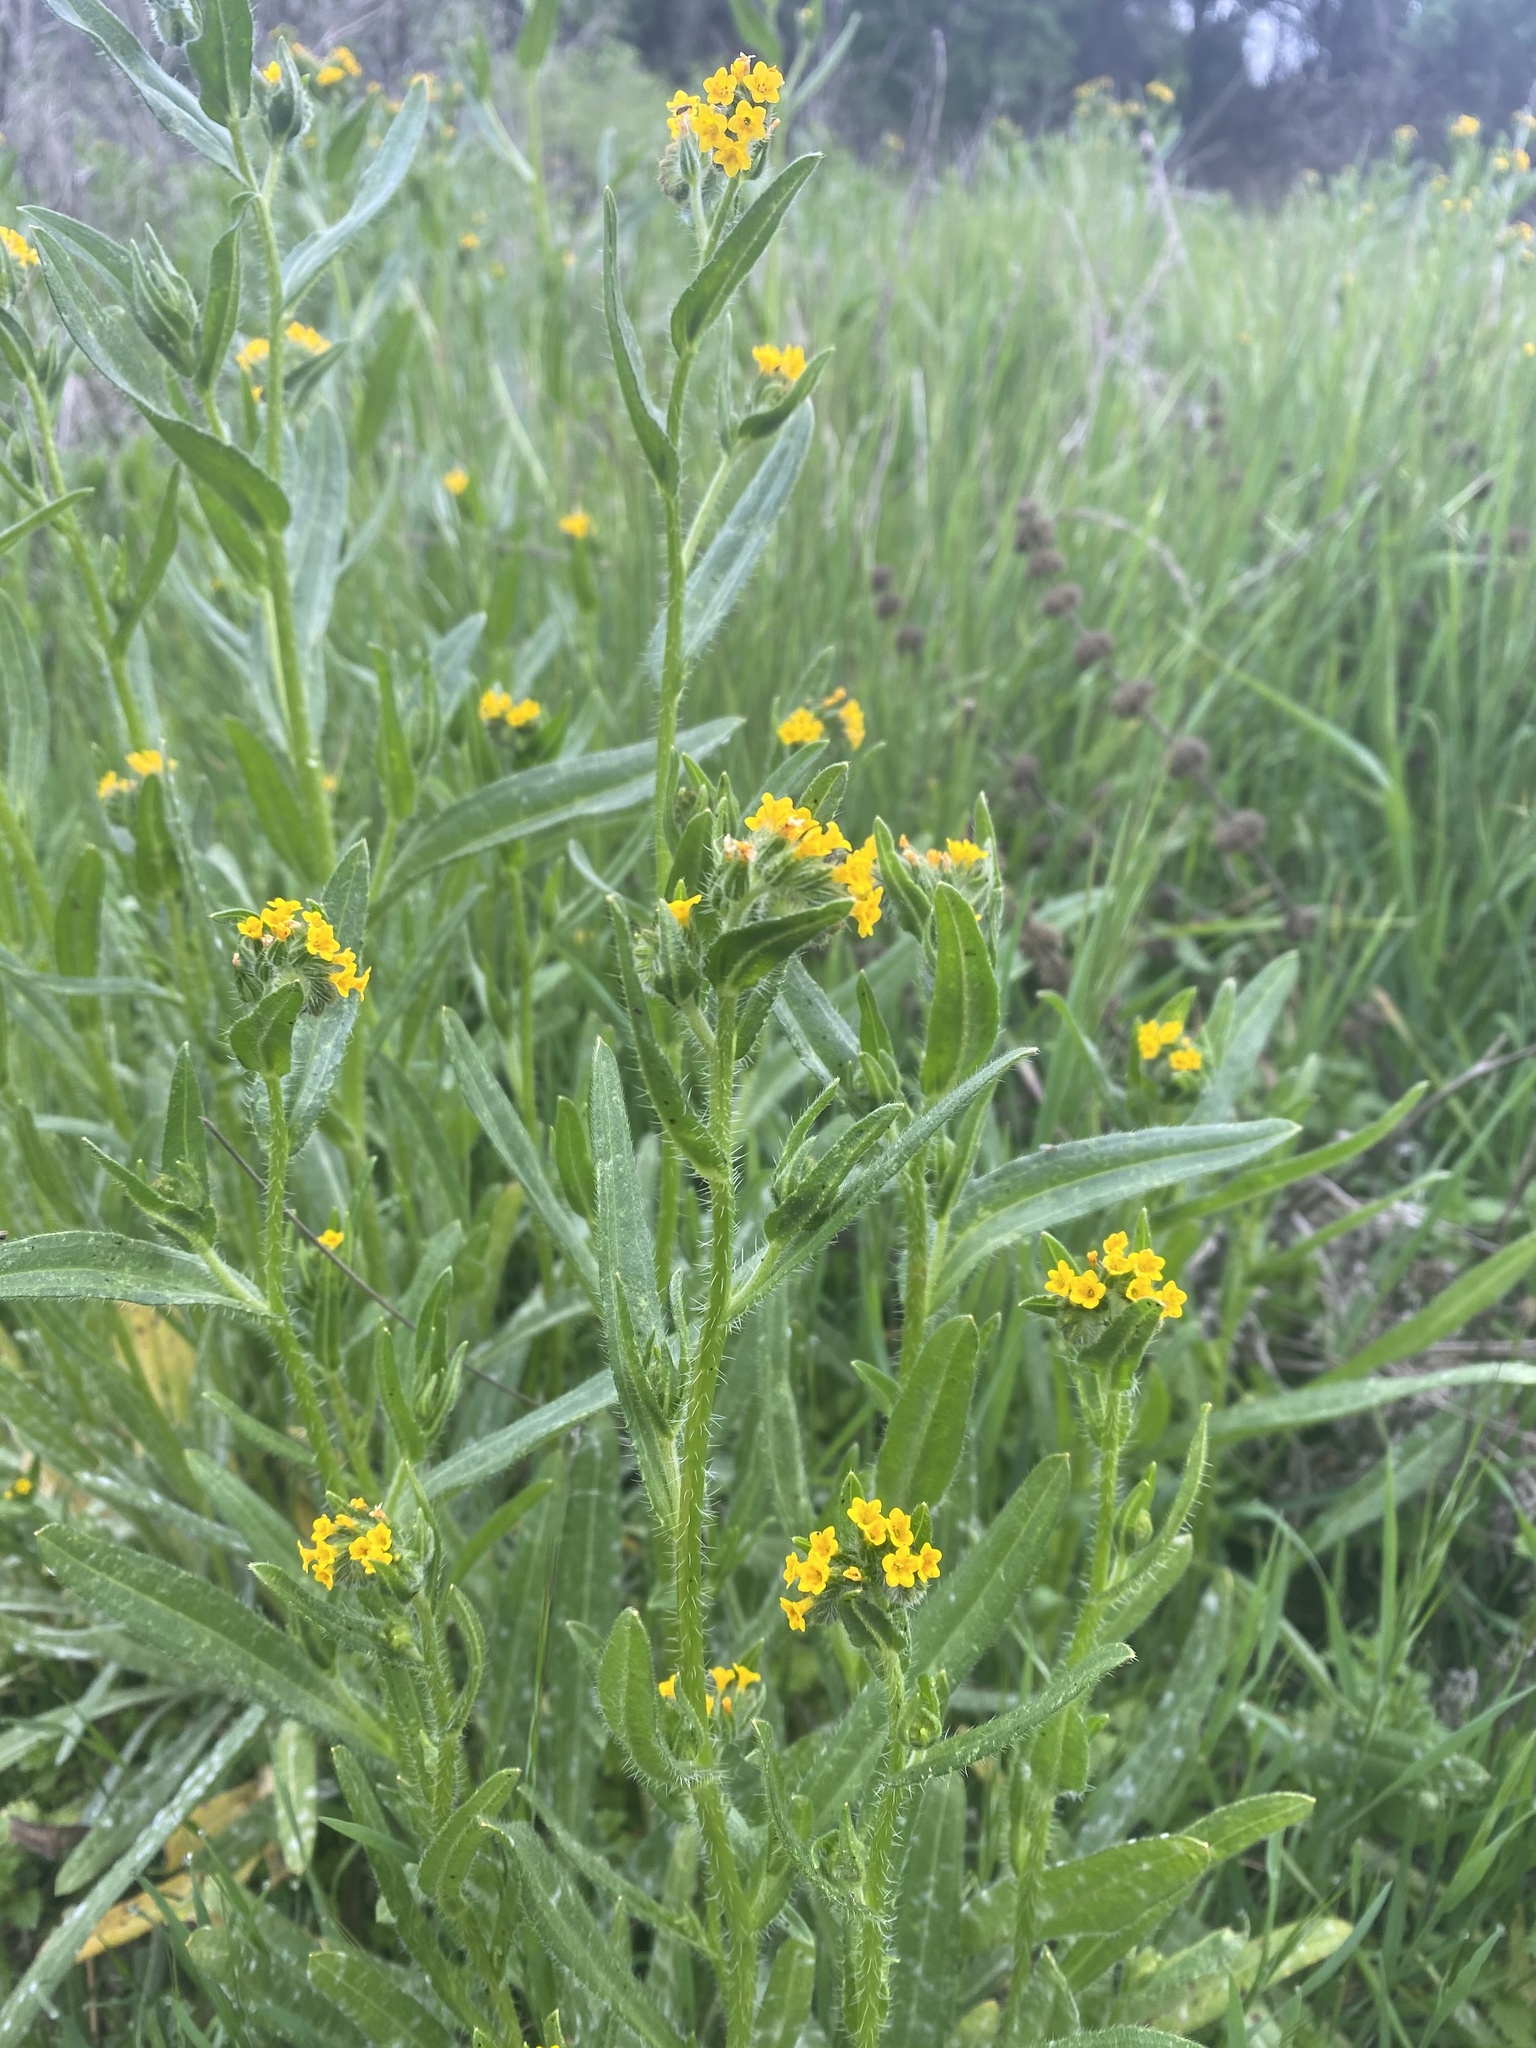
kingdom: Plantae
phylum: Tracheophyta
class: Magnoliopsida
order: Boraginales
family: Boraginaceae
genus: Amsinckia
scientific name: Amsinckia menziesii
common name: Menzies' fiddleneck
